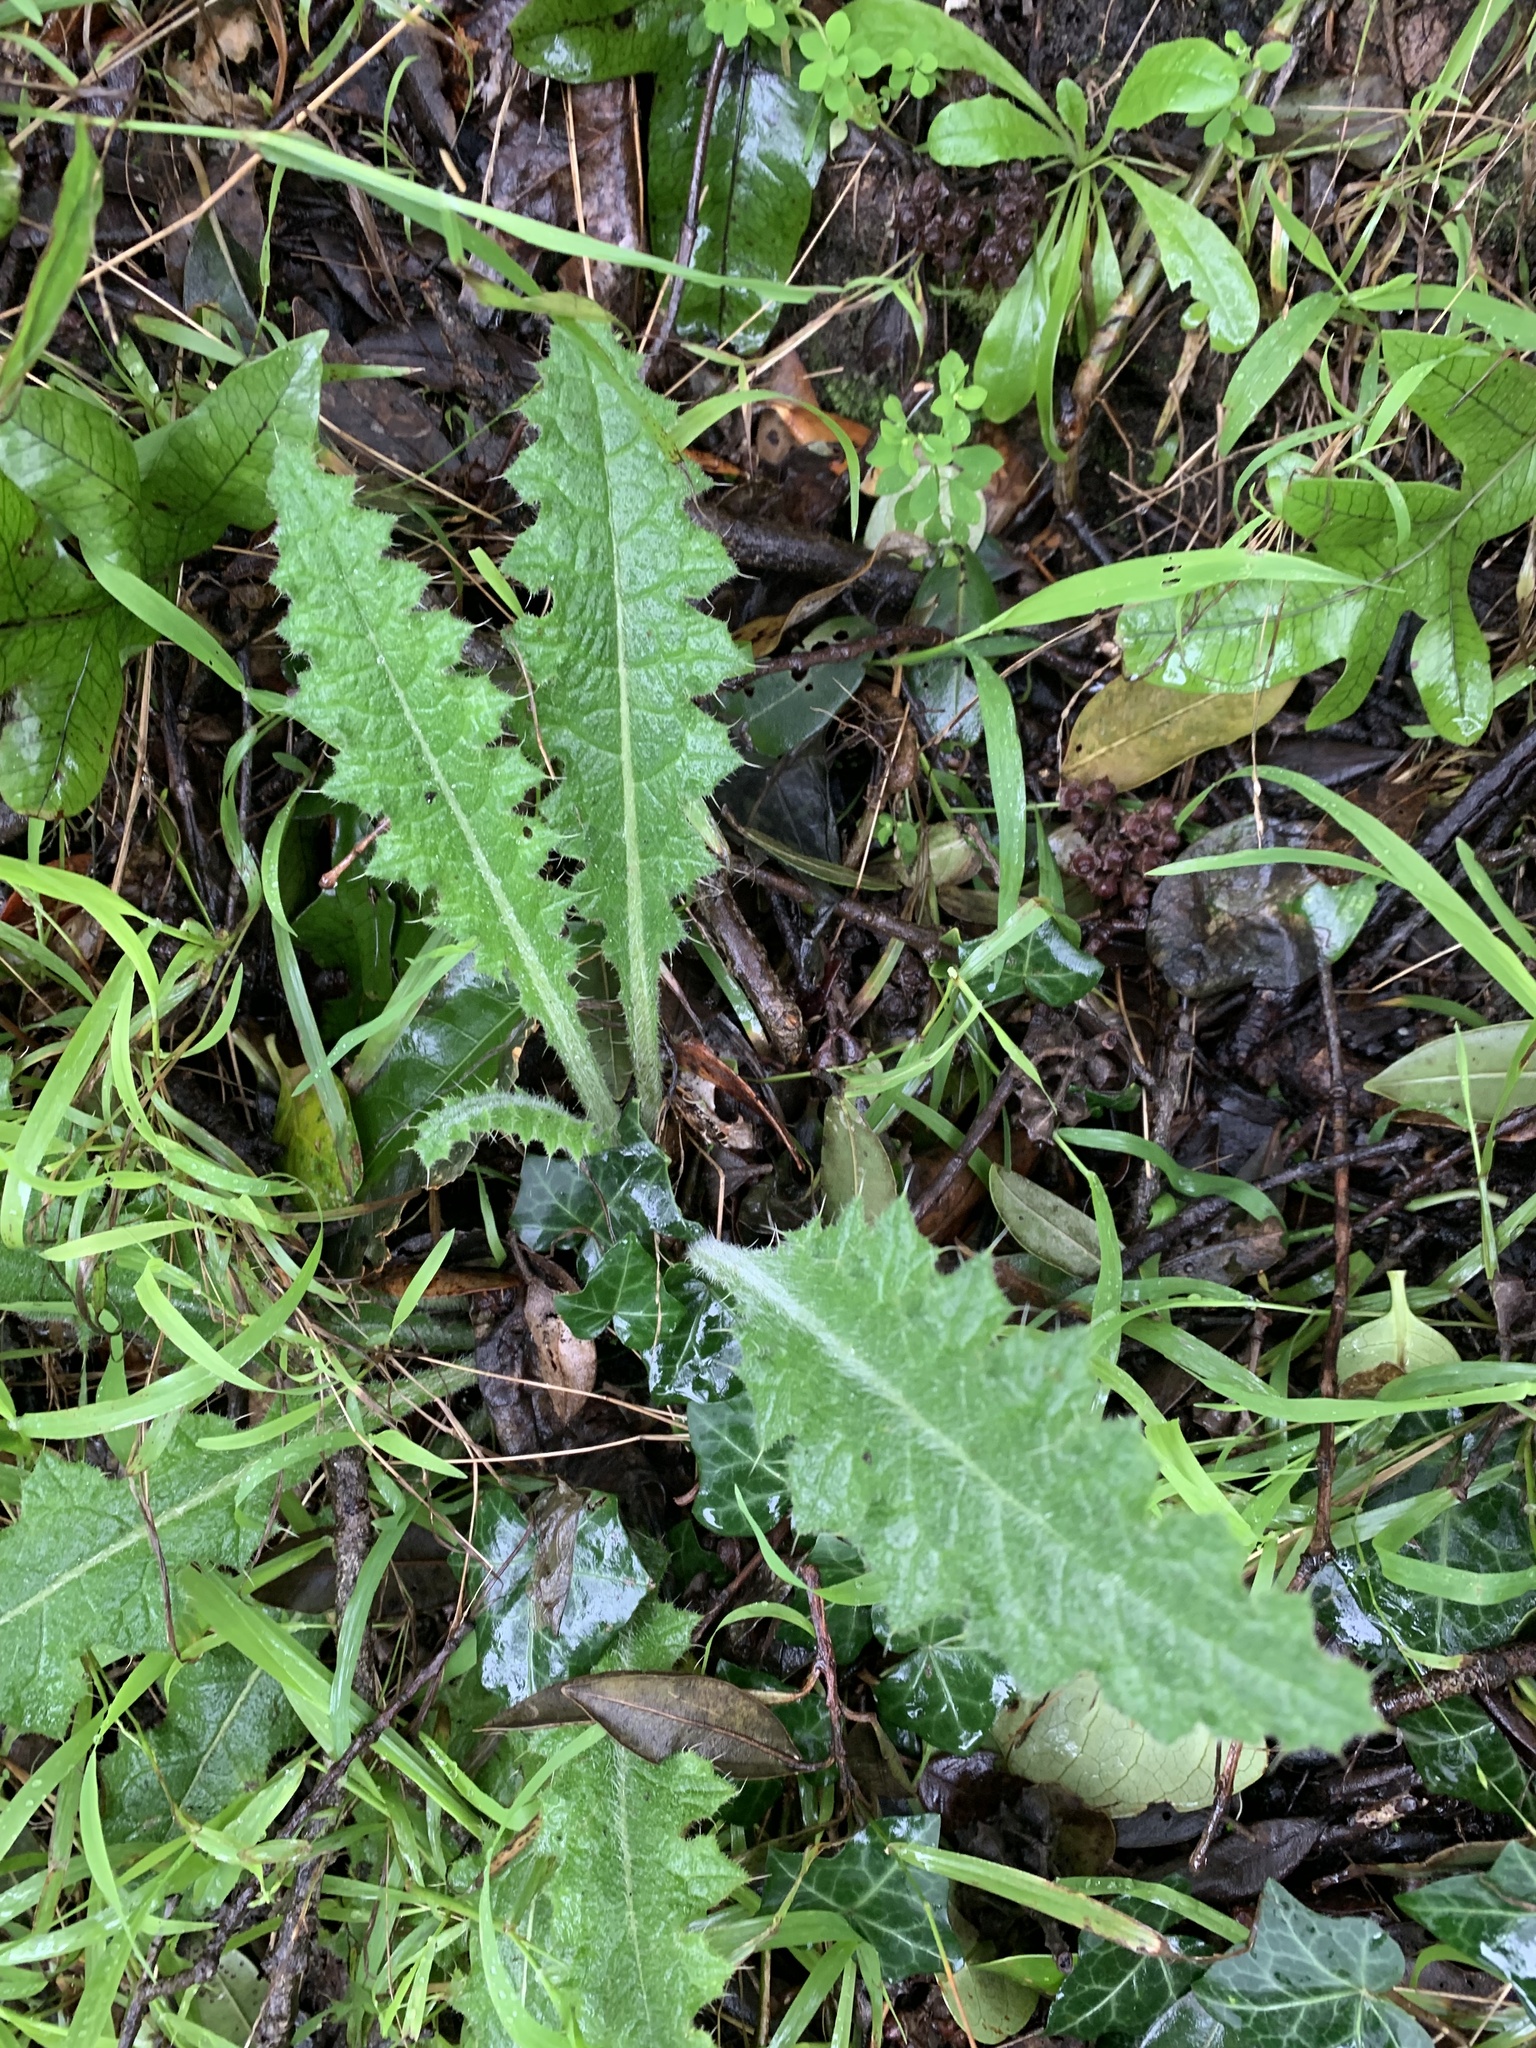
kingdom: Plantae
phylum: Tracheophyta
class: Magnoliopsida
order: Asterales
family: Asteraceae
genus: Cirsium
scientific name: Cirsium vulgare
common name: Bull thistle
